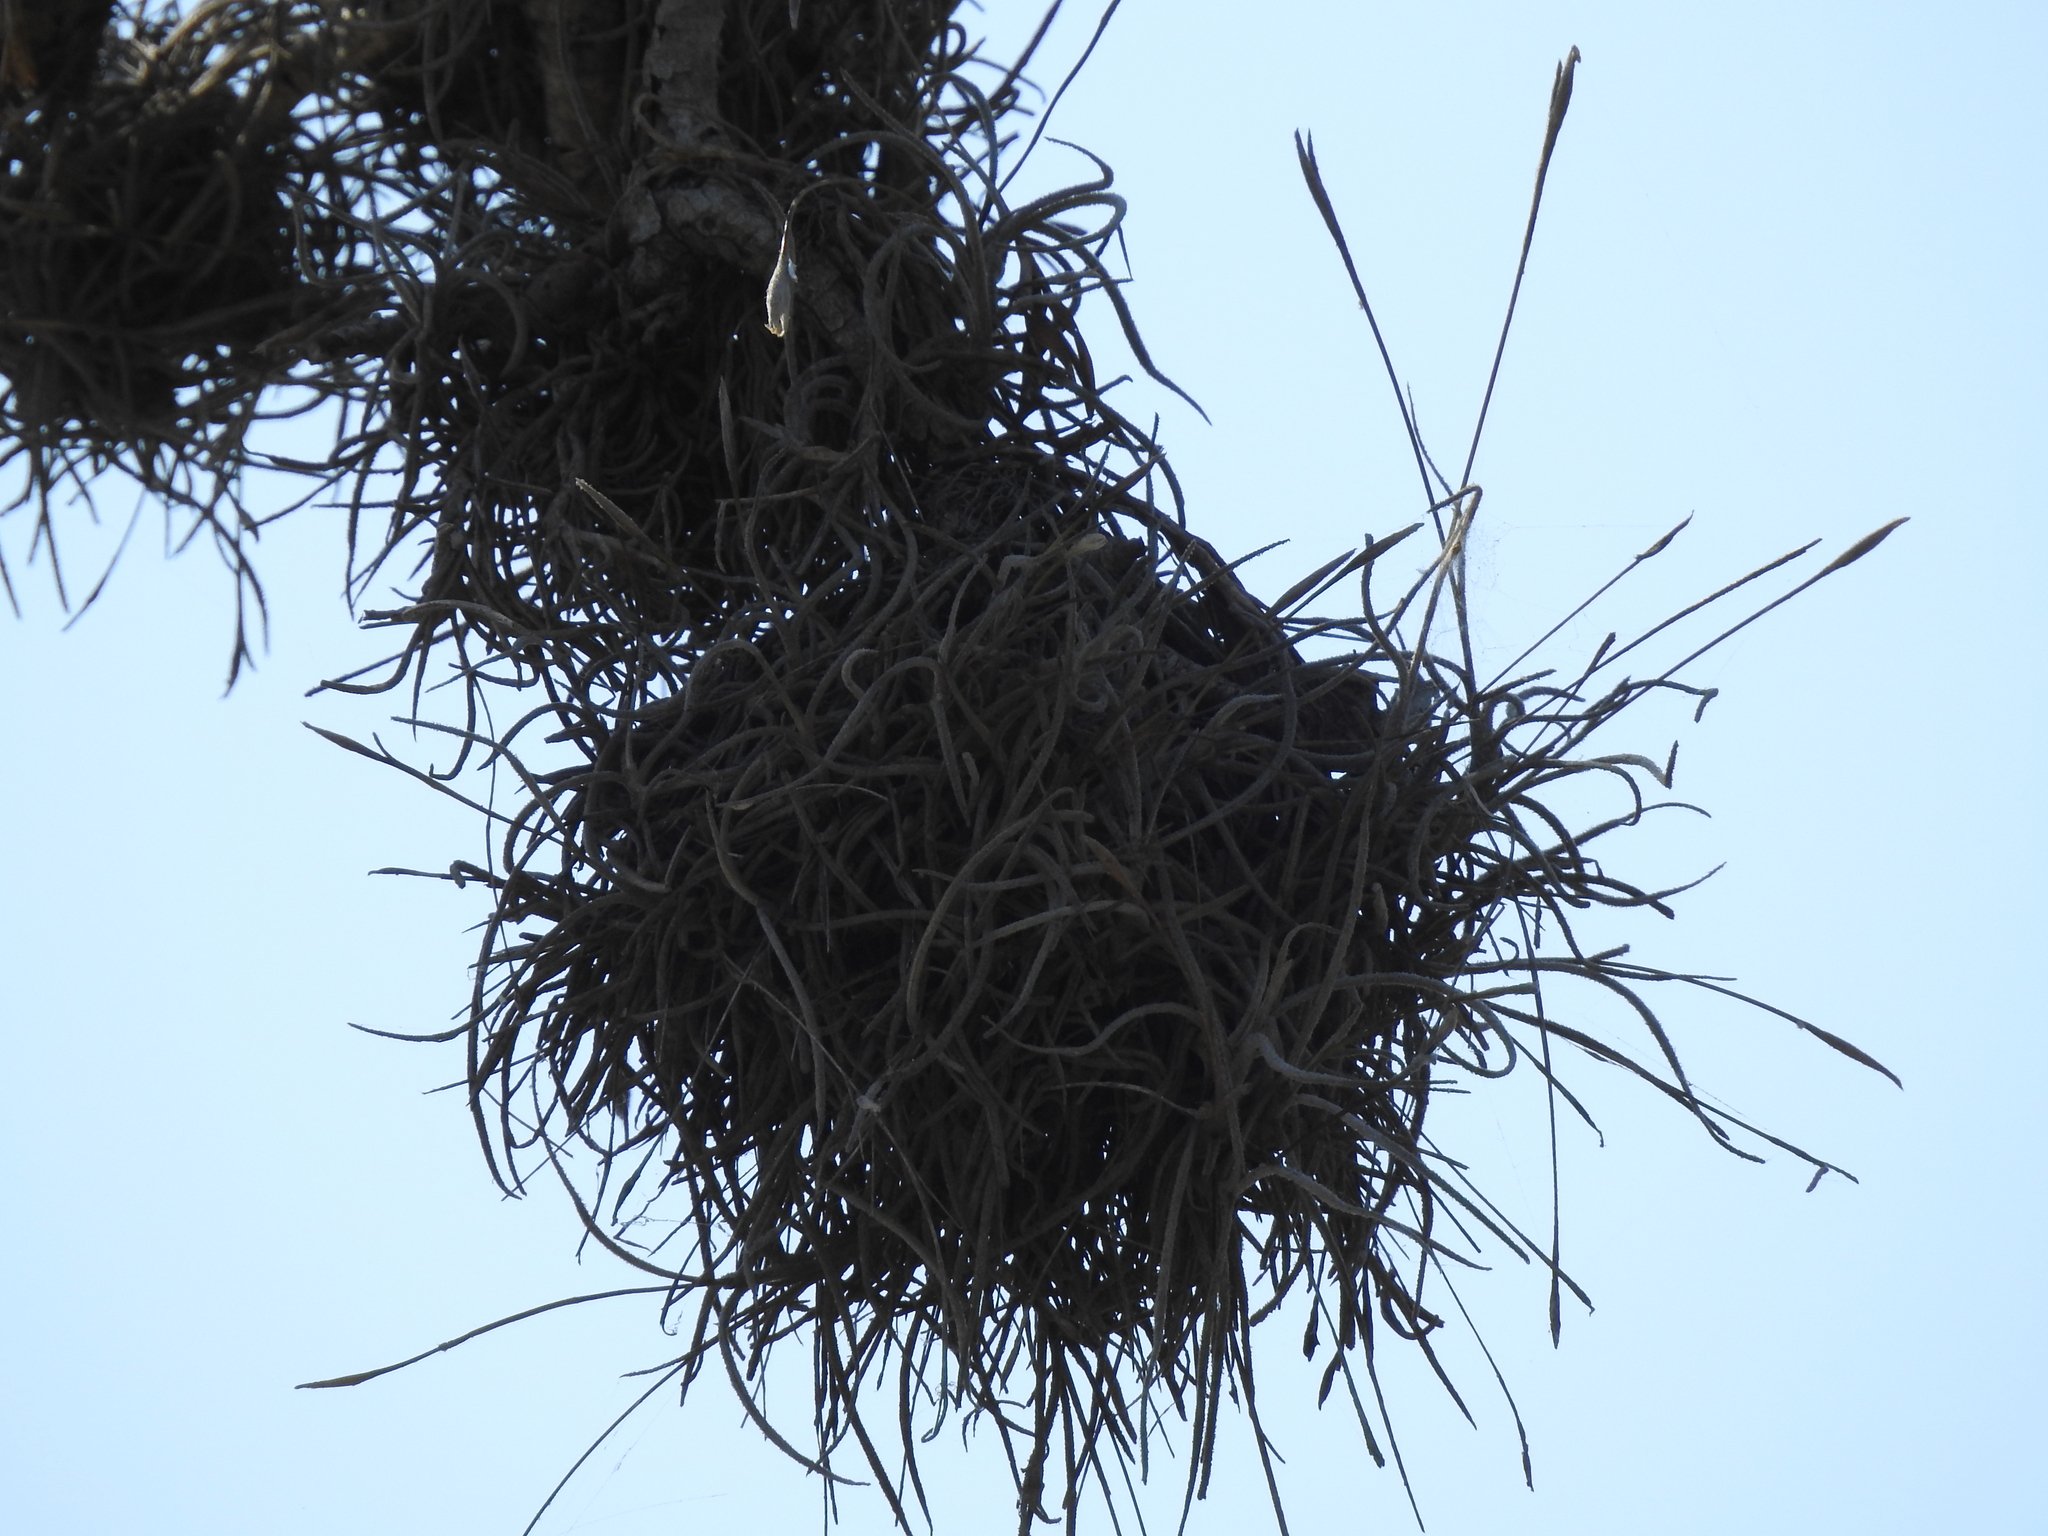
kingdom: Plantae
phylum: Tracheophyta
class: Liliopsida
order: Poales
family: Bromeliaceae
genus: Tillandsia
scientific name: Tillandsia recurvata
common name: Small ballmoss
